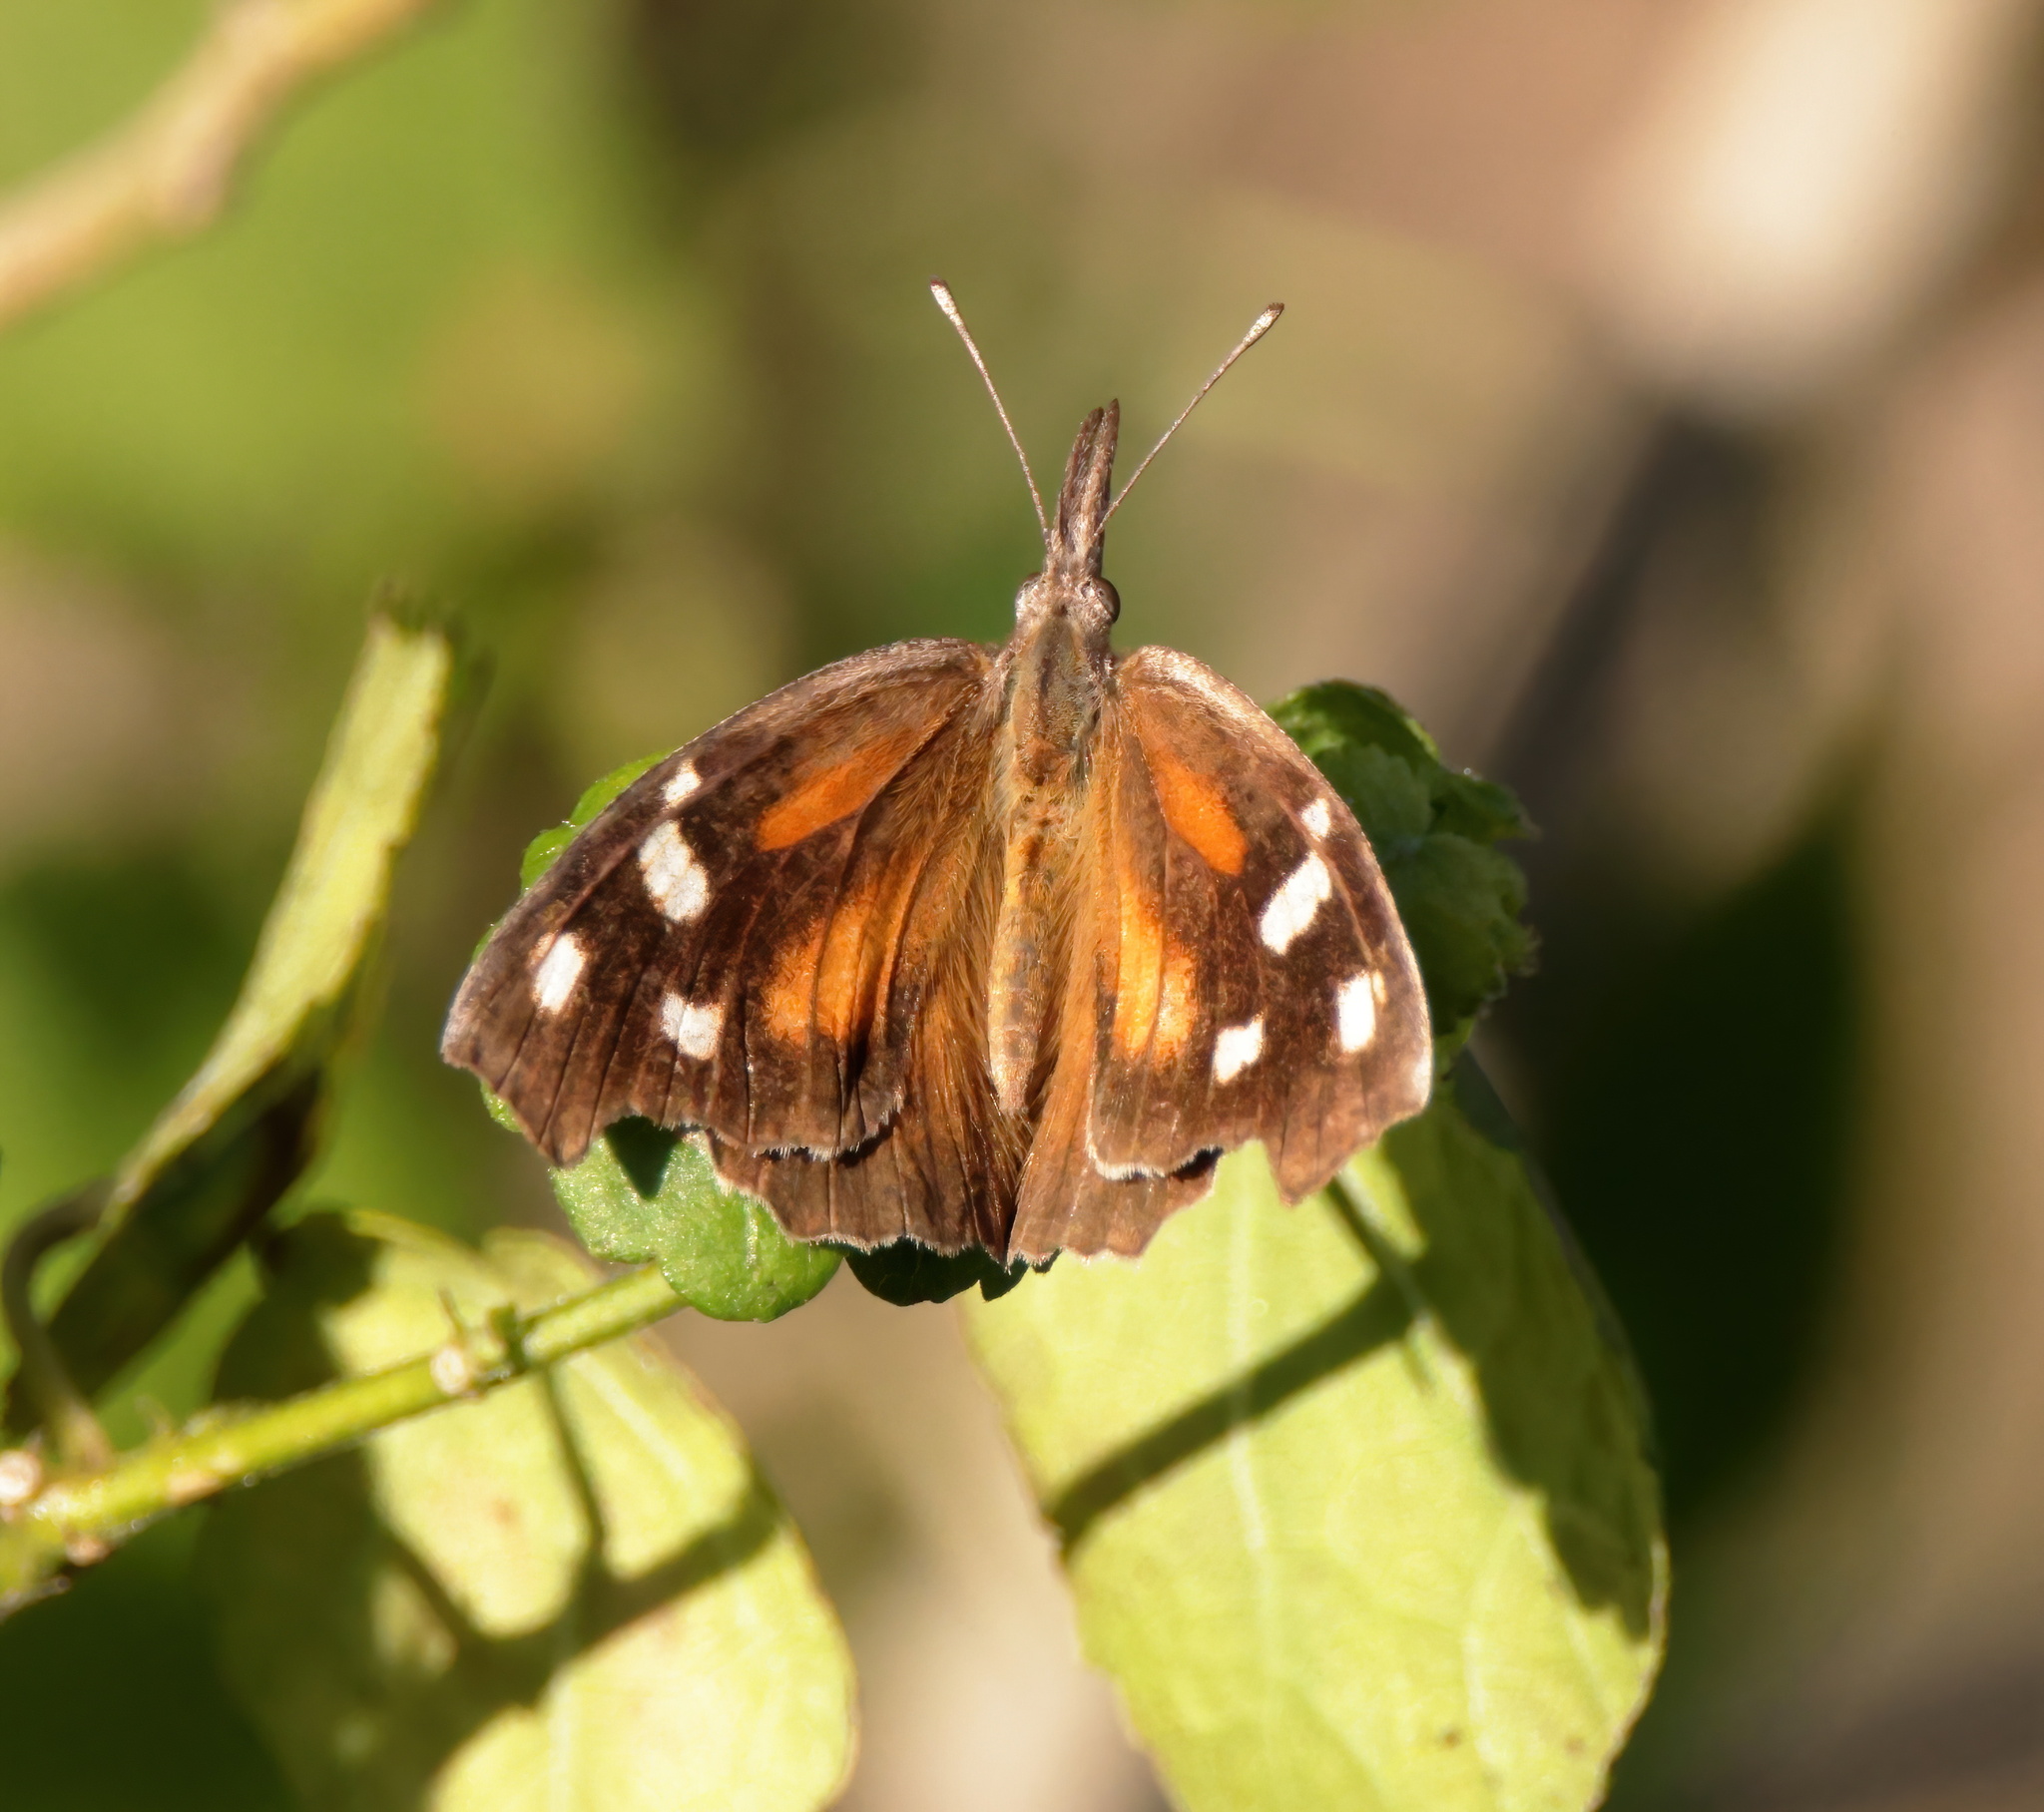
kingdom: Animalia
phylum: Arthropoda
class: Insecta
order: Lepidoptera
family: Nymphalidae
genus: Libytheana
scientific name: Libytheana carinenta
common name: American snout
